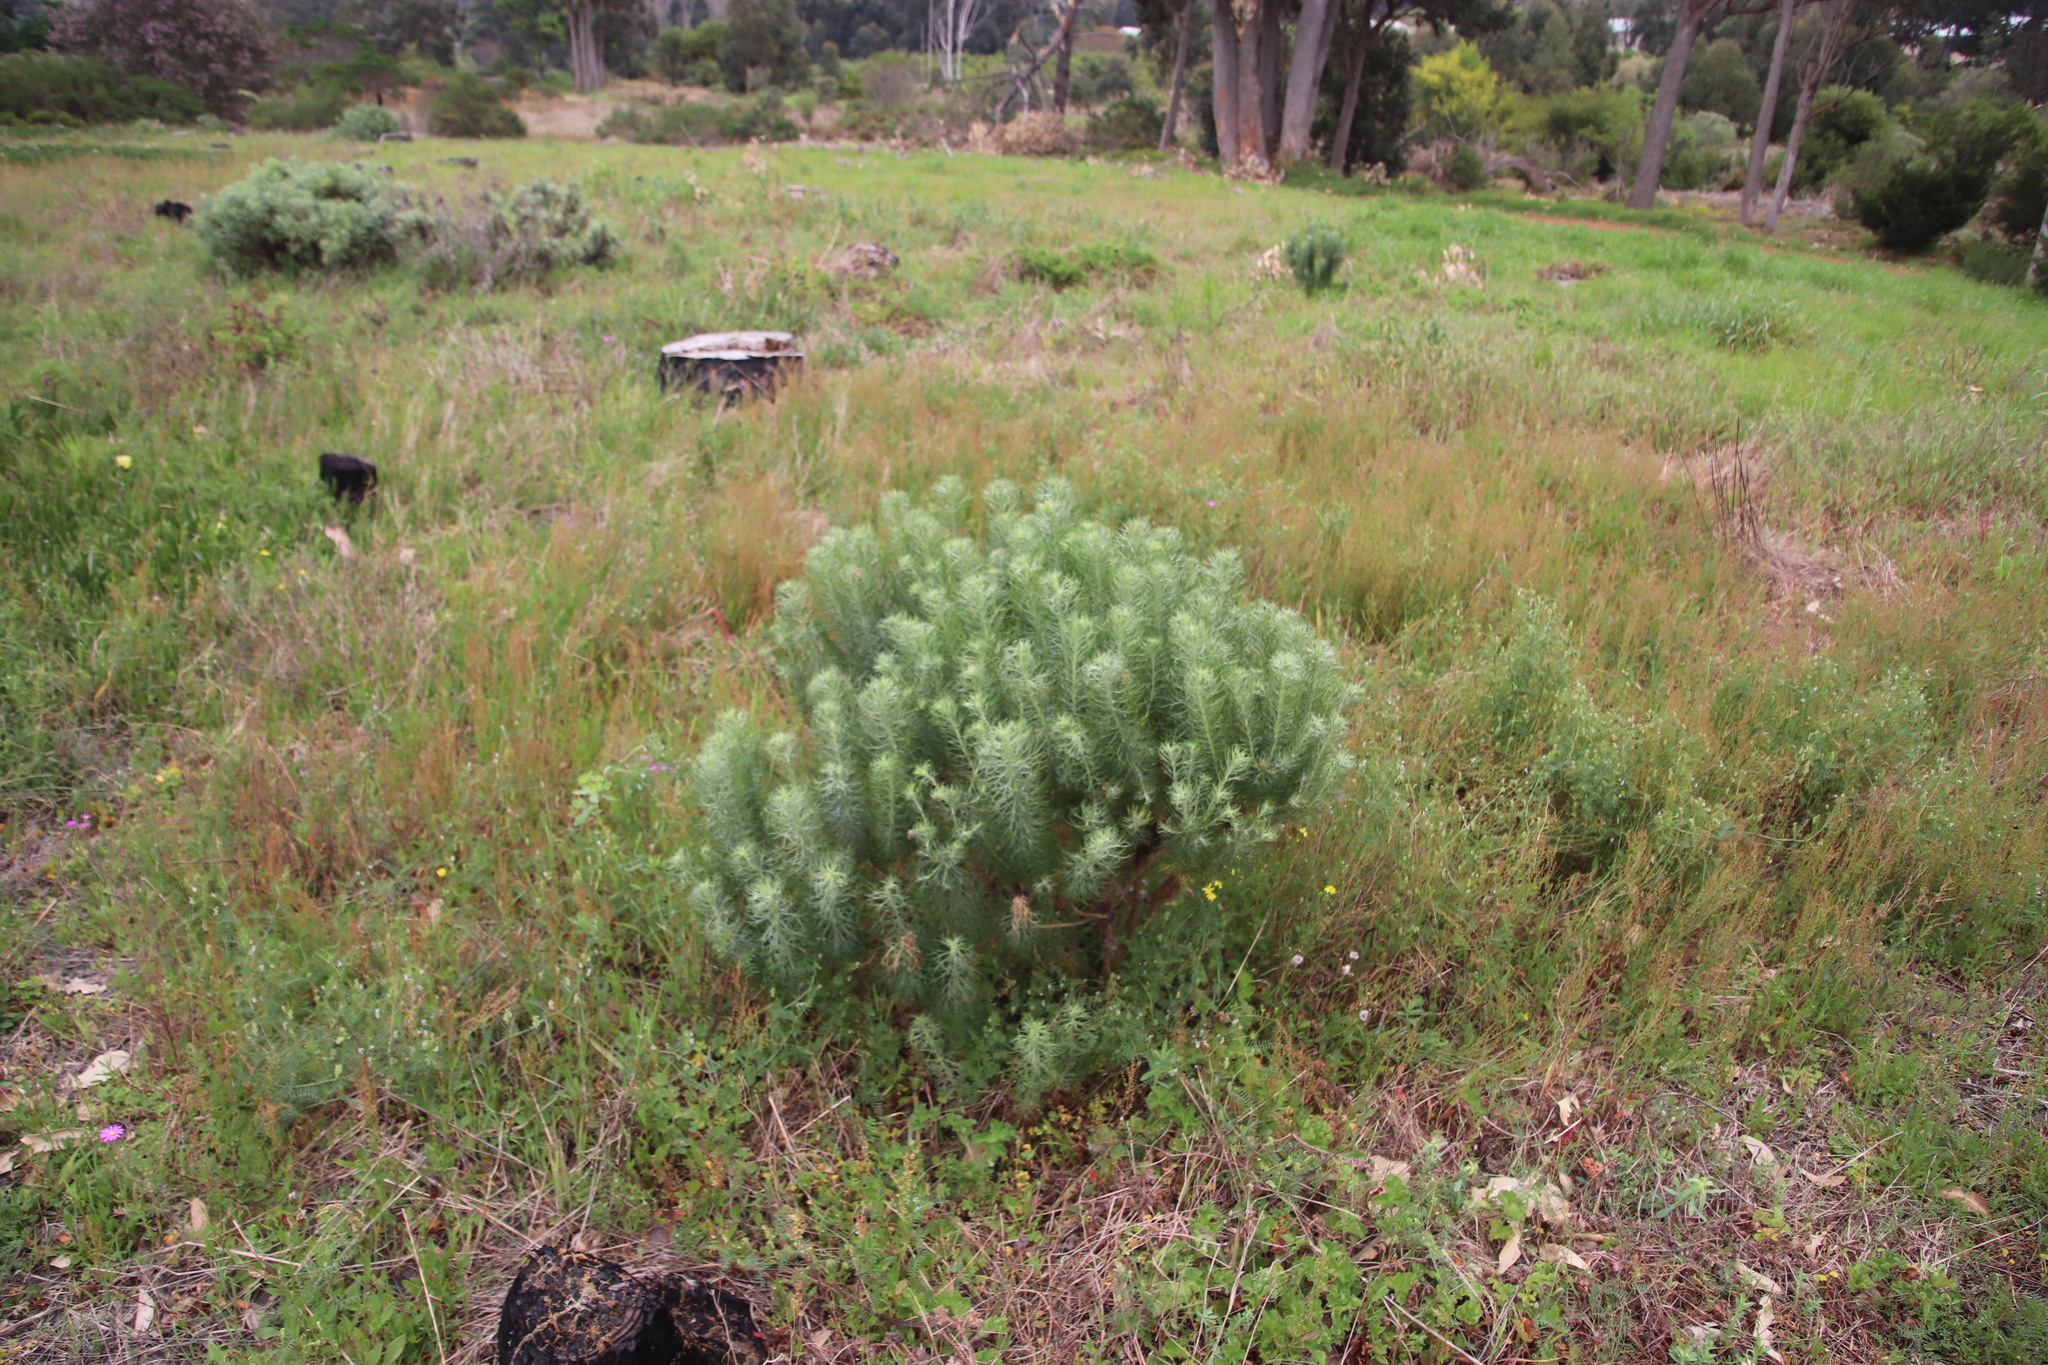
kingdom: Plantae
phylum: Tracheophyta
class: Magnoliopsida
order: Asterales
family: Asteraceae
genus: Athanasia
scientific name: Athanasia crithmifolia
